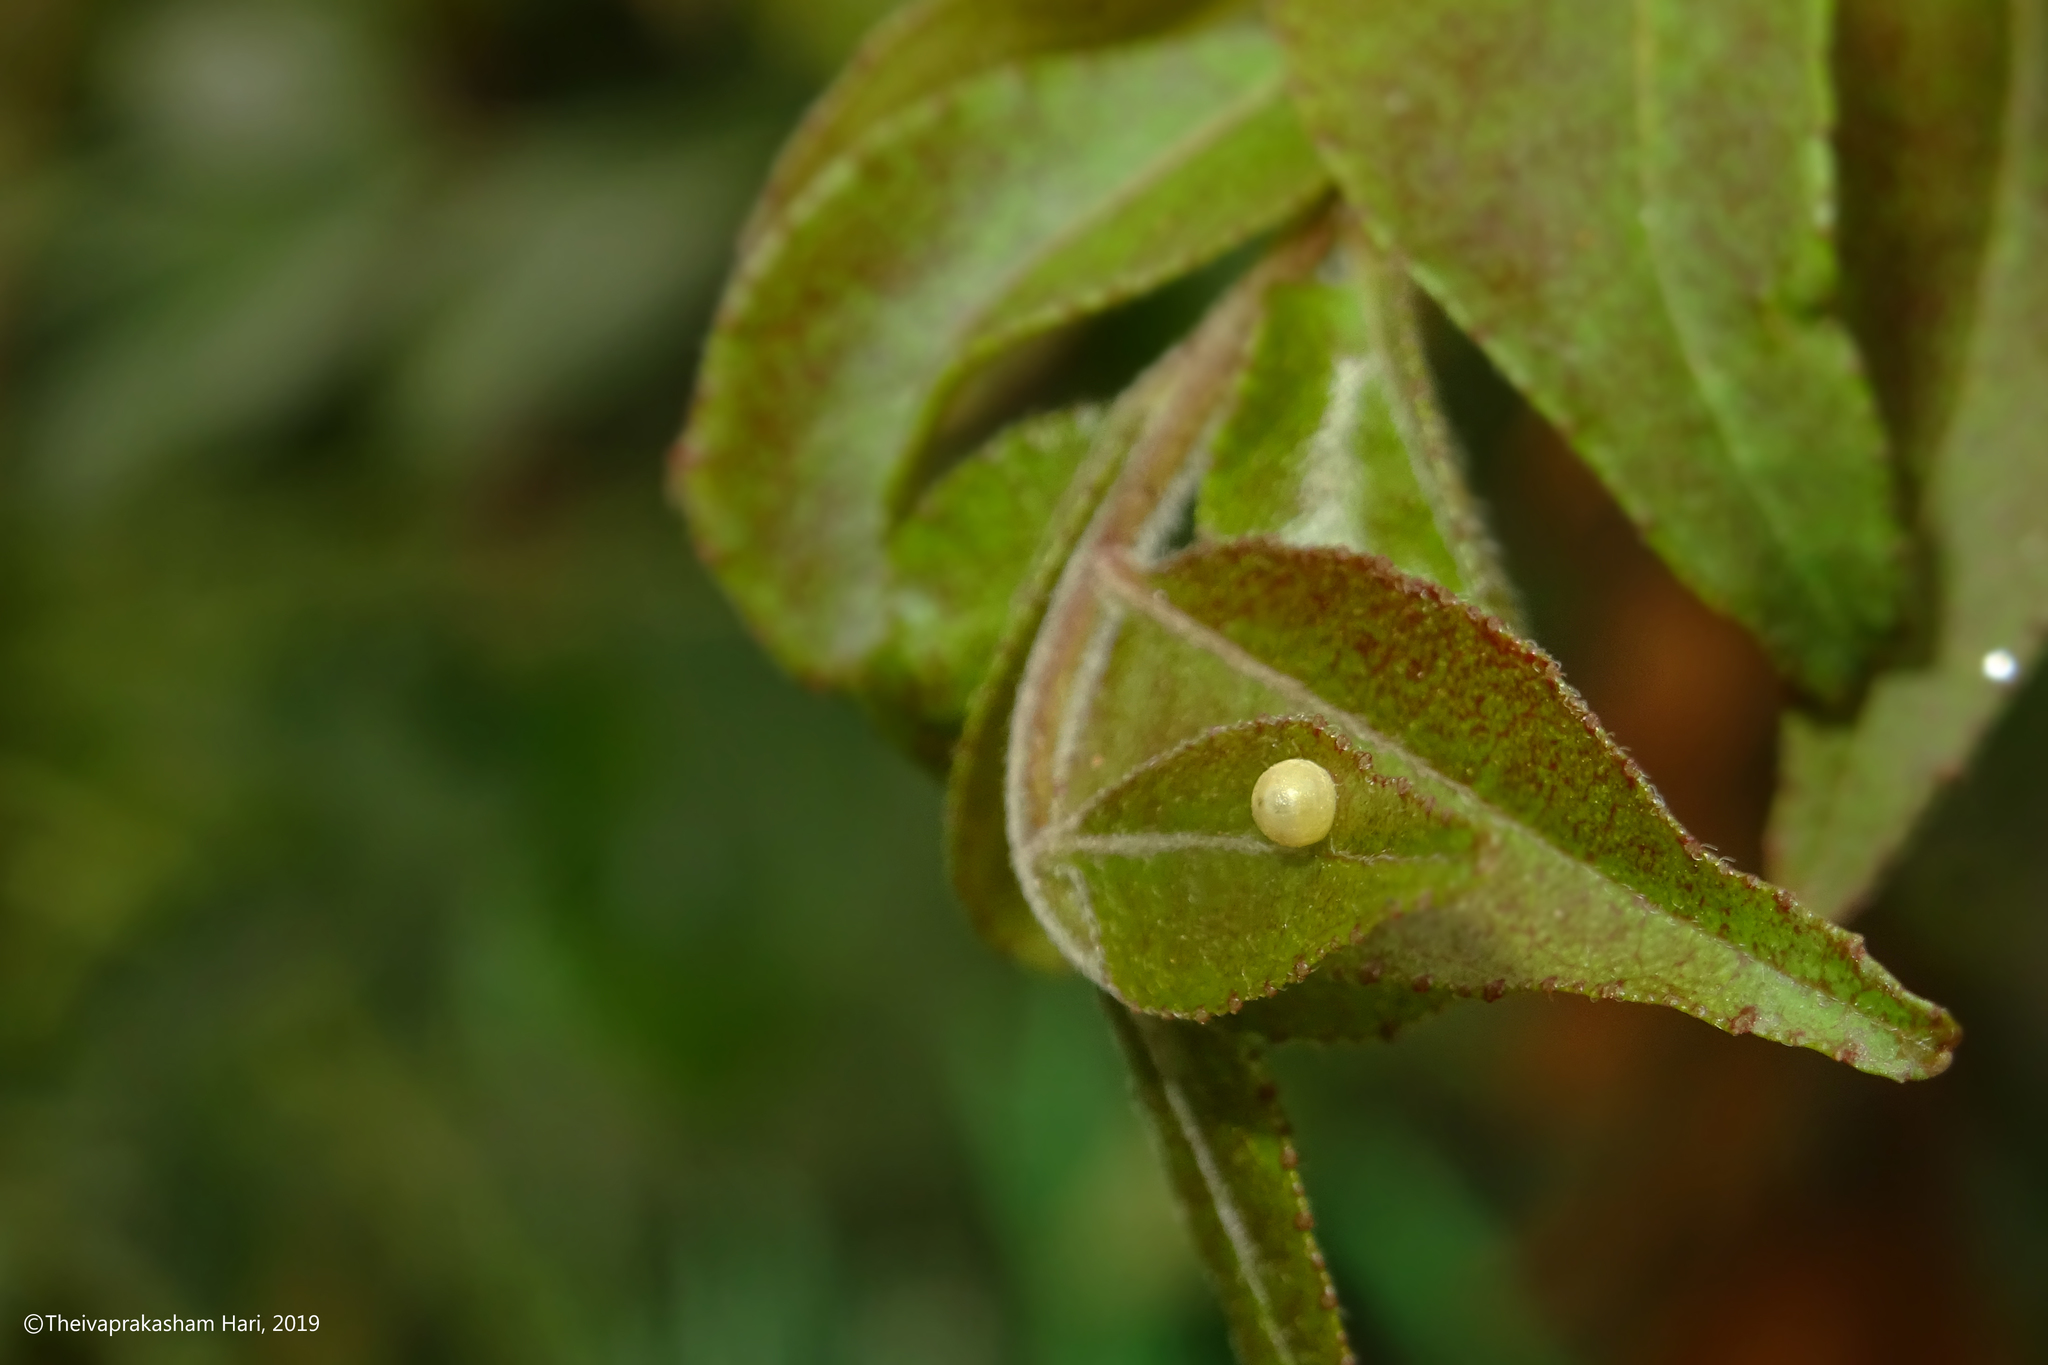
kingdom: Animalia
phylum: Arthropoda
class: Insecta
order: Lepidoptera
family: Papilionidae
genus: Papilio
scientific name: Papilio polytes
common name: Common mormon
